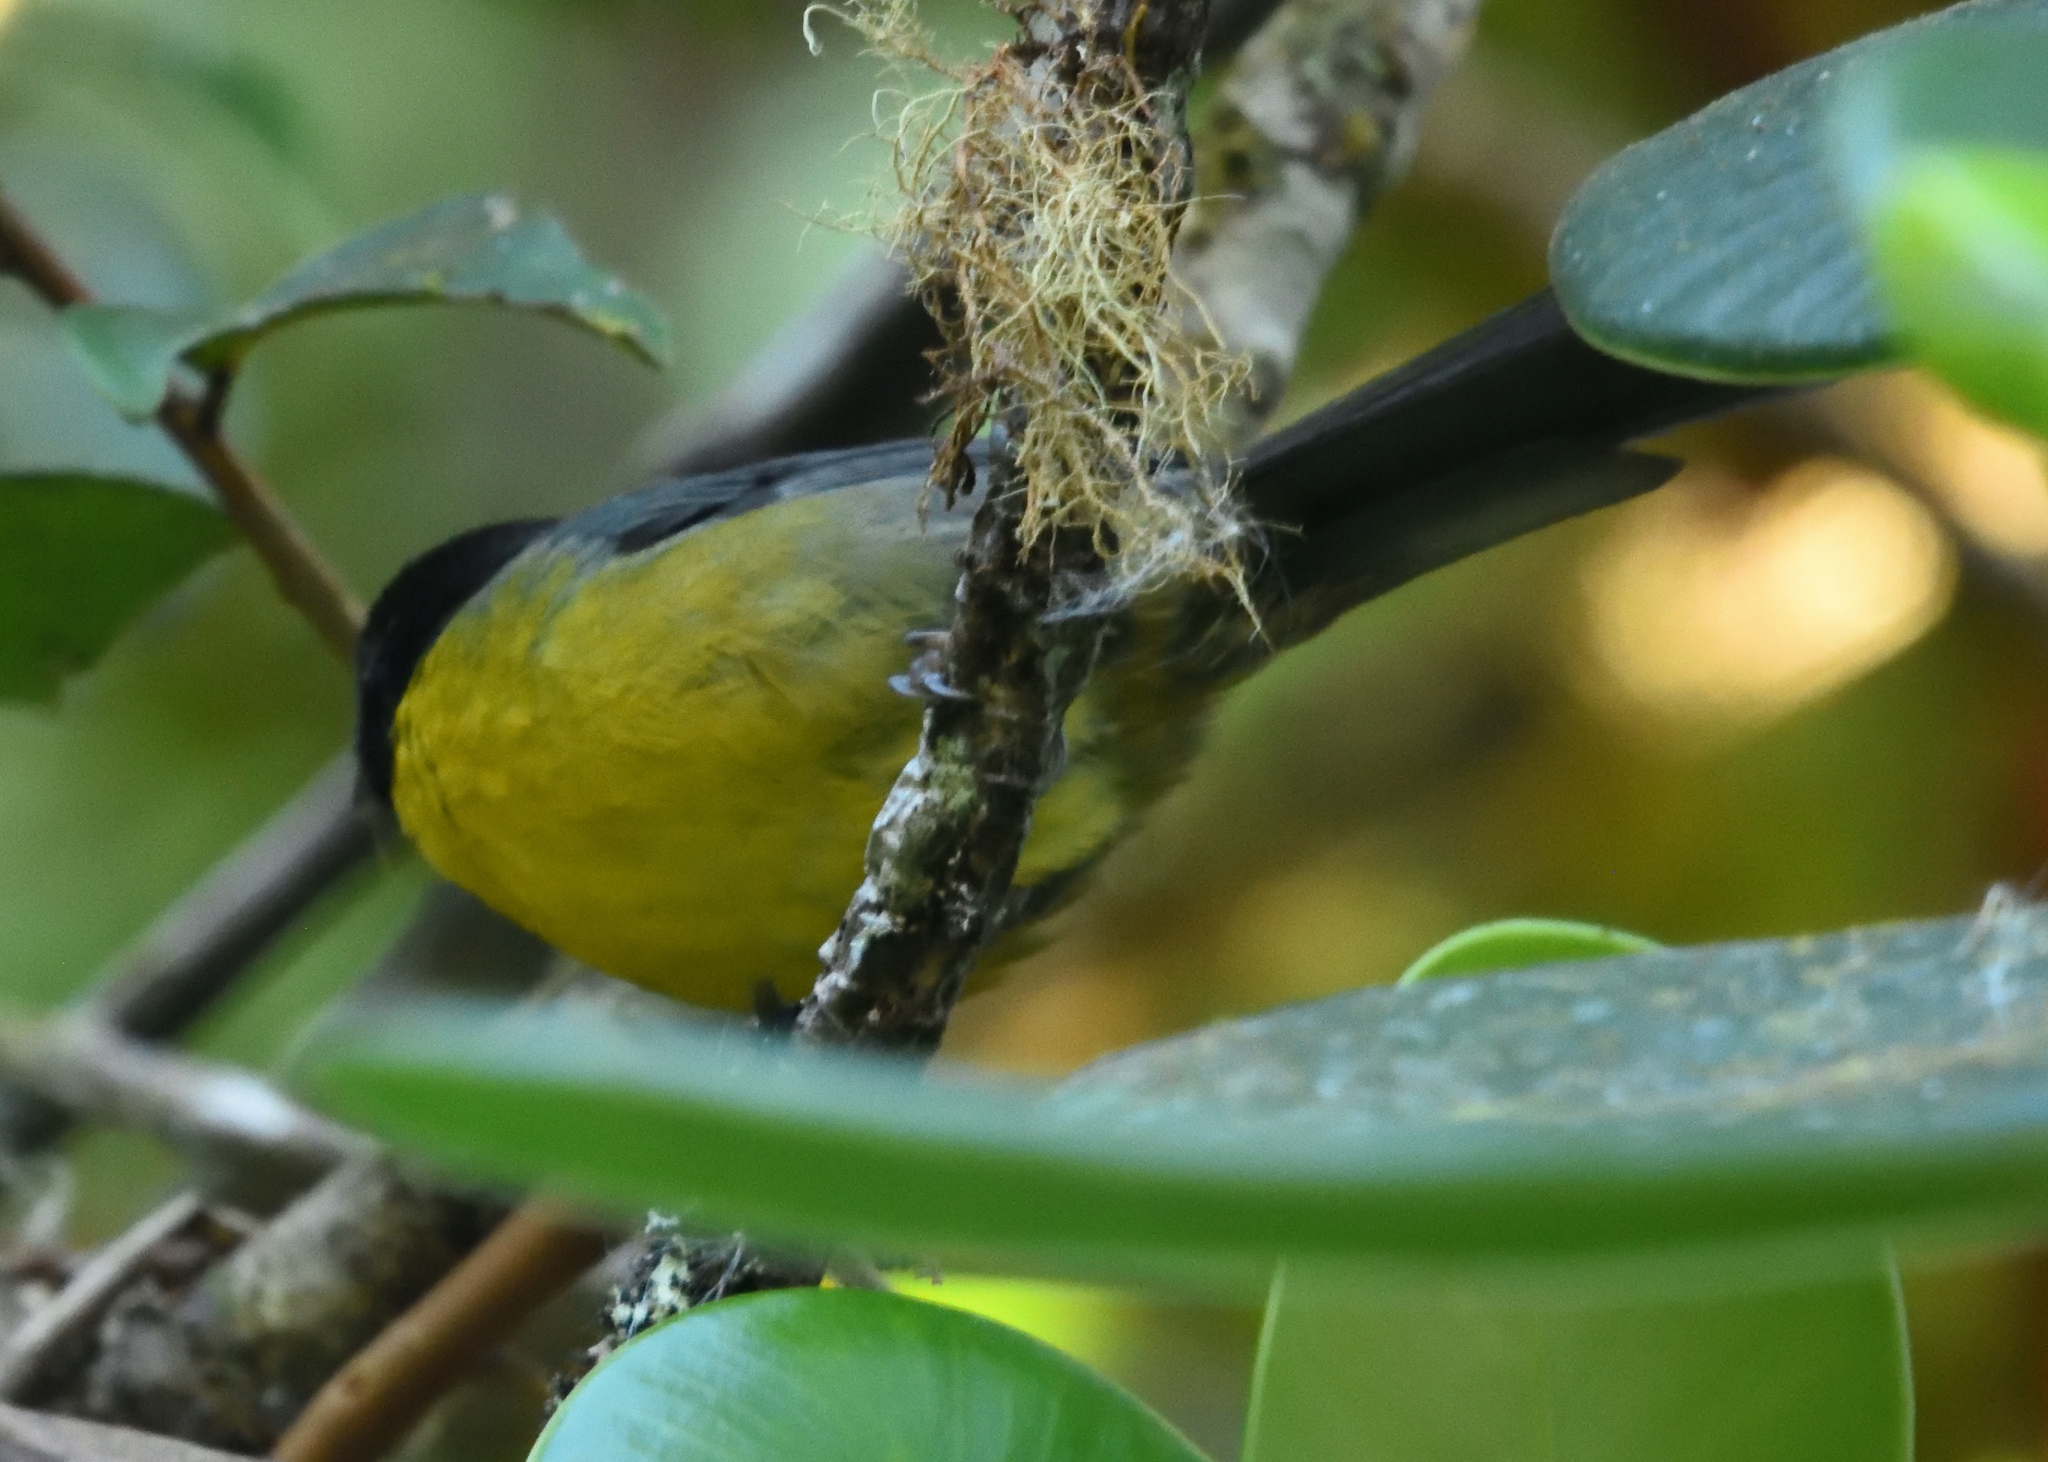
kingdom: Animalia
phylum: Chordata
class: Aves
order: Passeriformes
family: Passerellidae
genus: Atlapetes
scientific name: Atlapetes melanocephalus
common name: Santa marta brush-finch
